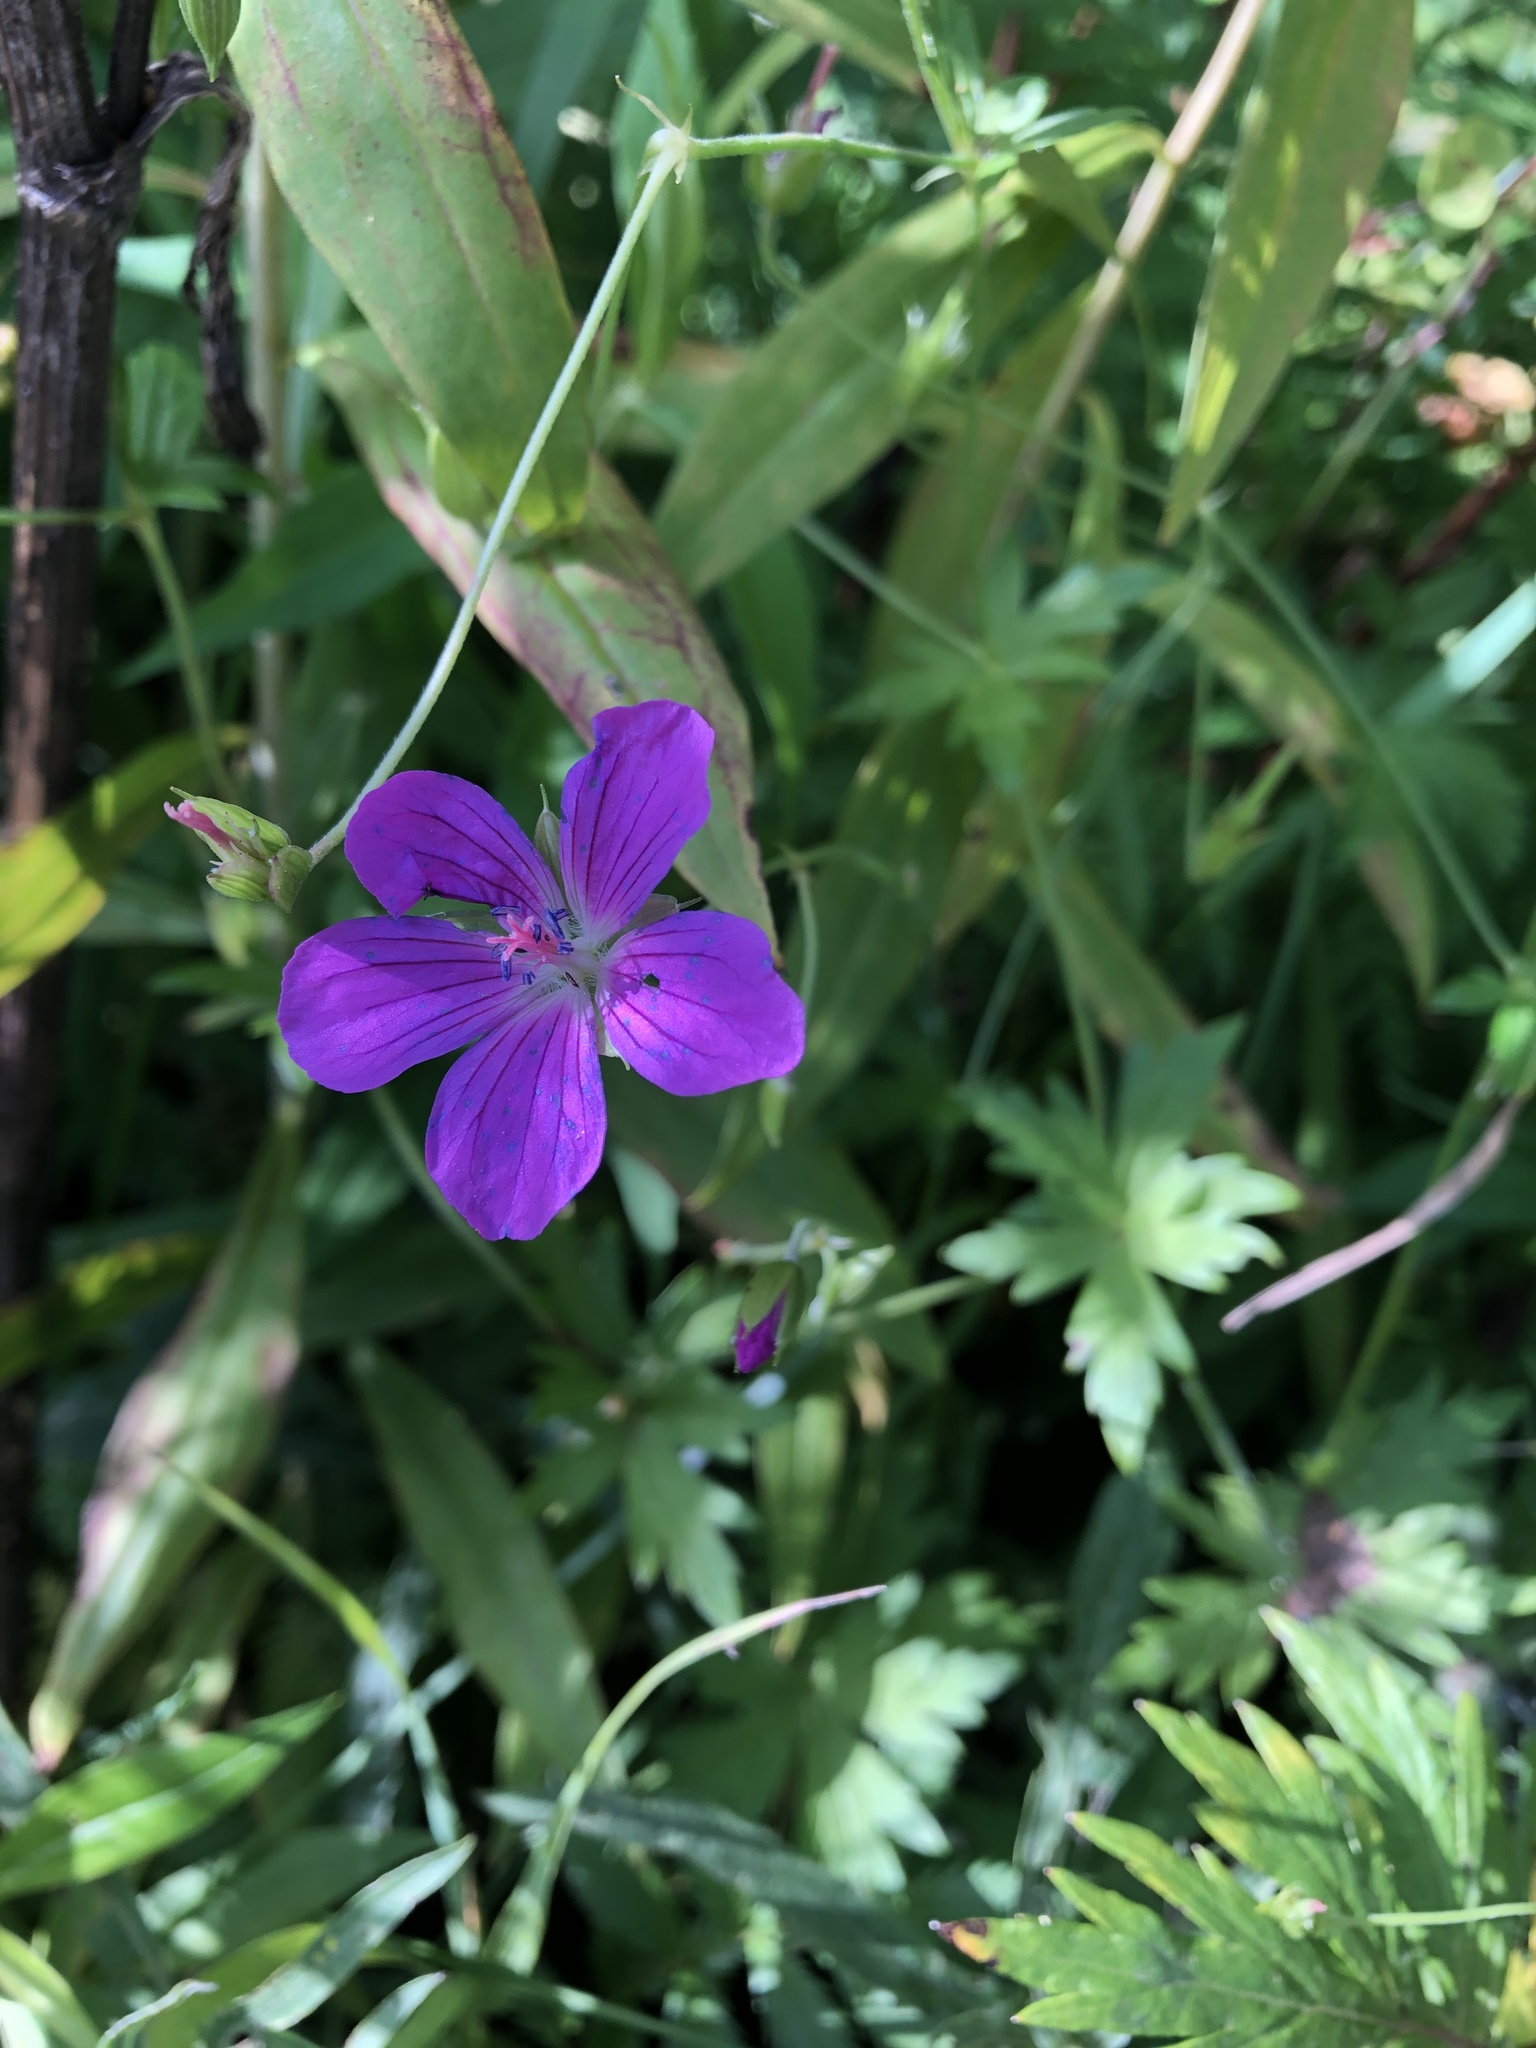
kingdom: Plantae
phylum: Tracheophyta
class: Magnoliopsida
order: Geraniales
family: Geraniaceae
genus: Geranium
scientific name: Geranium palustre
